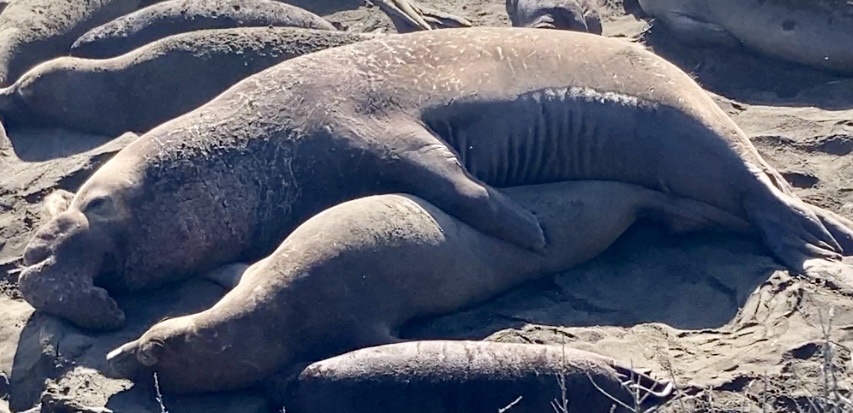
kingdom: Animalia
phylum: Chordata
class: Mammalia
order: Carnivora
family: Phocidae
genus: Mirounga
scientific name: Mirounga angustirostris
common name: Northern elephant seal
